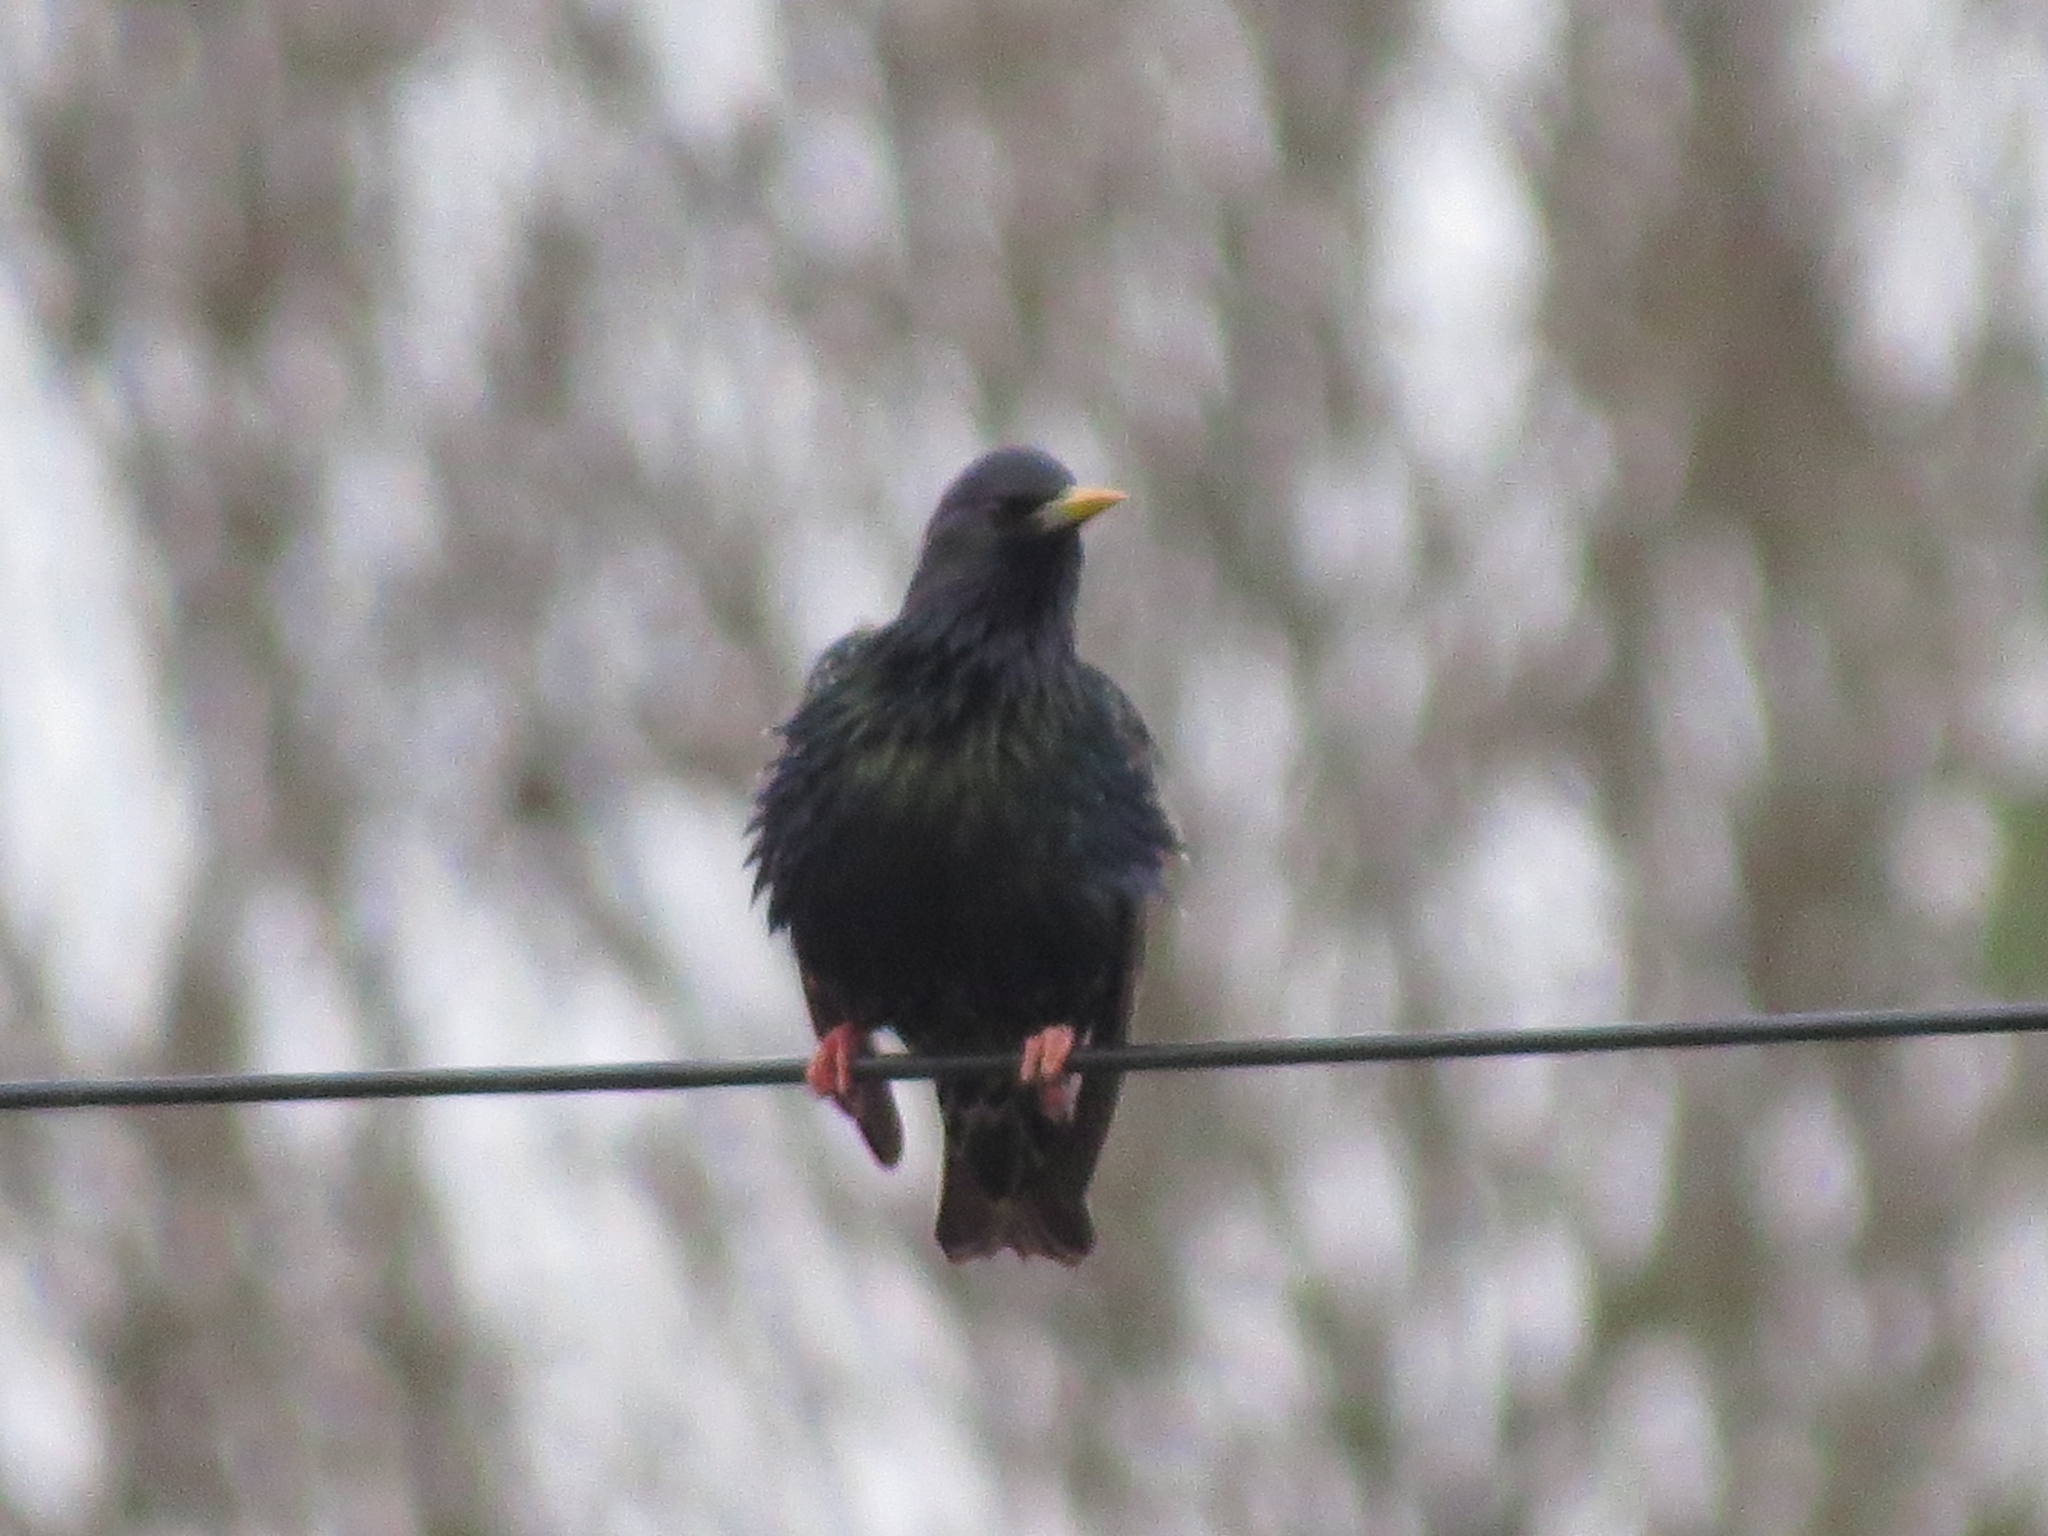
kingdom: Animalia
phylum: Chordata
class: Aves
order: Passeriformes
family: Sturnidae
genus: Sturnus
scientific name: Sturnus vulgaris
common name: Common starling
